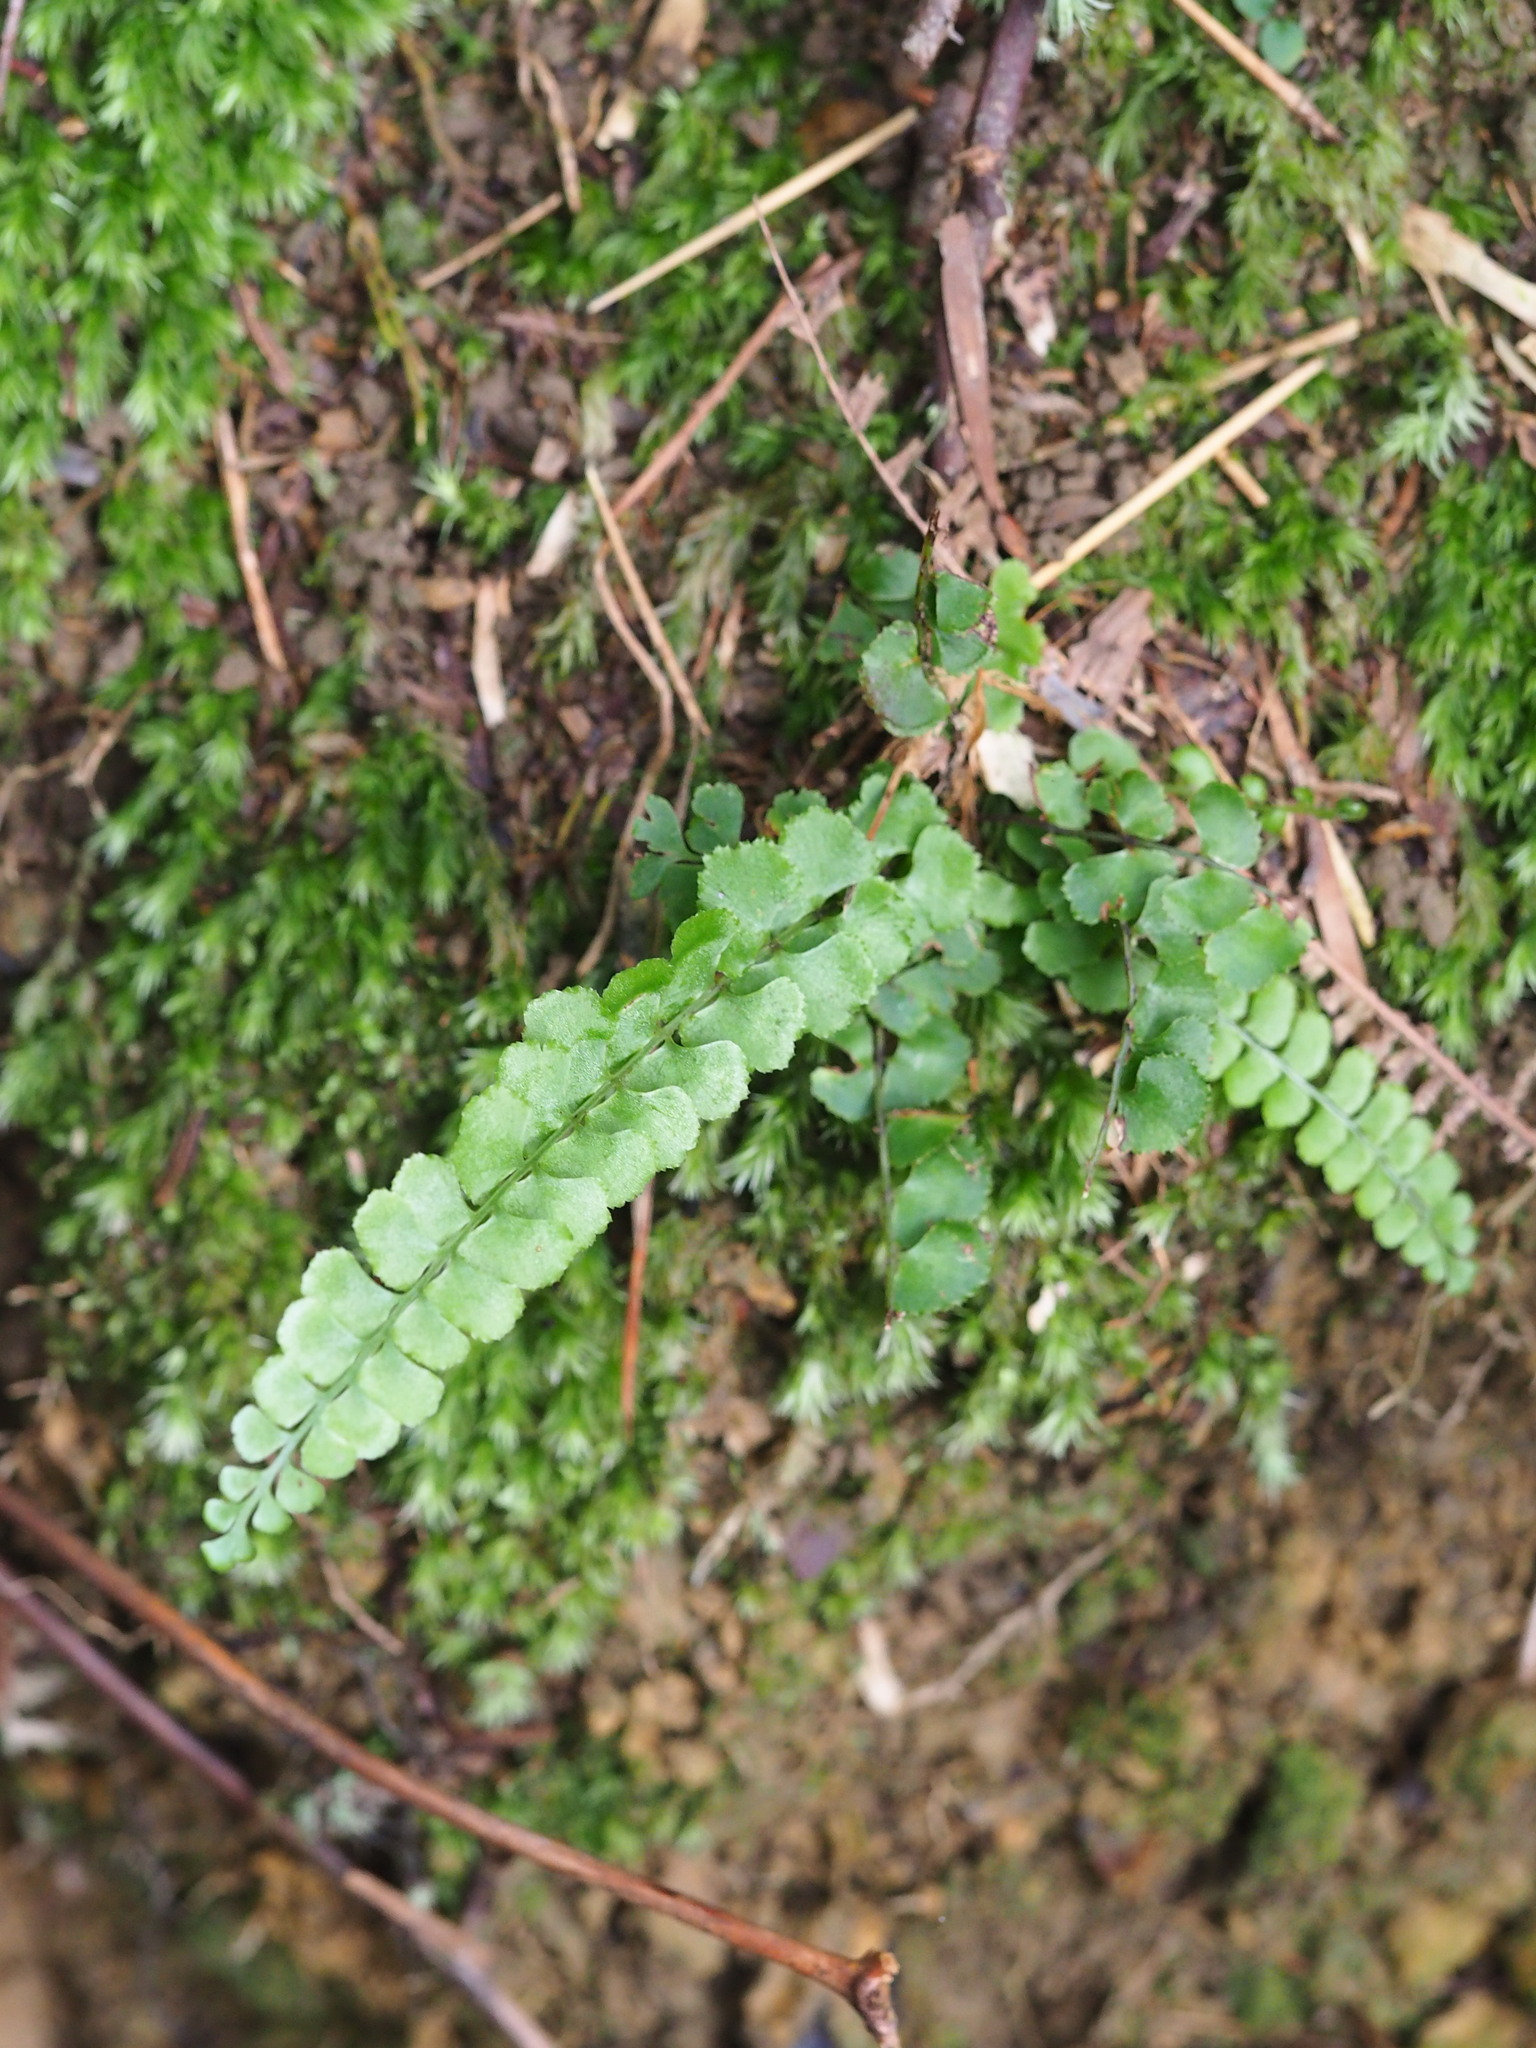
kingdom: Plantae
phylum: Tracheophyta
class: Polypodiopsida
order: Polypodiales
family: Lindsaeaceae
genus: Lindsaea
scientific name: Lindsaea orbiculata
